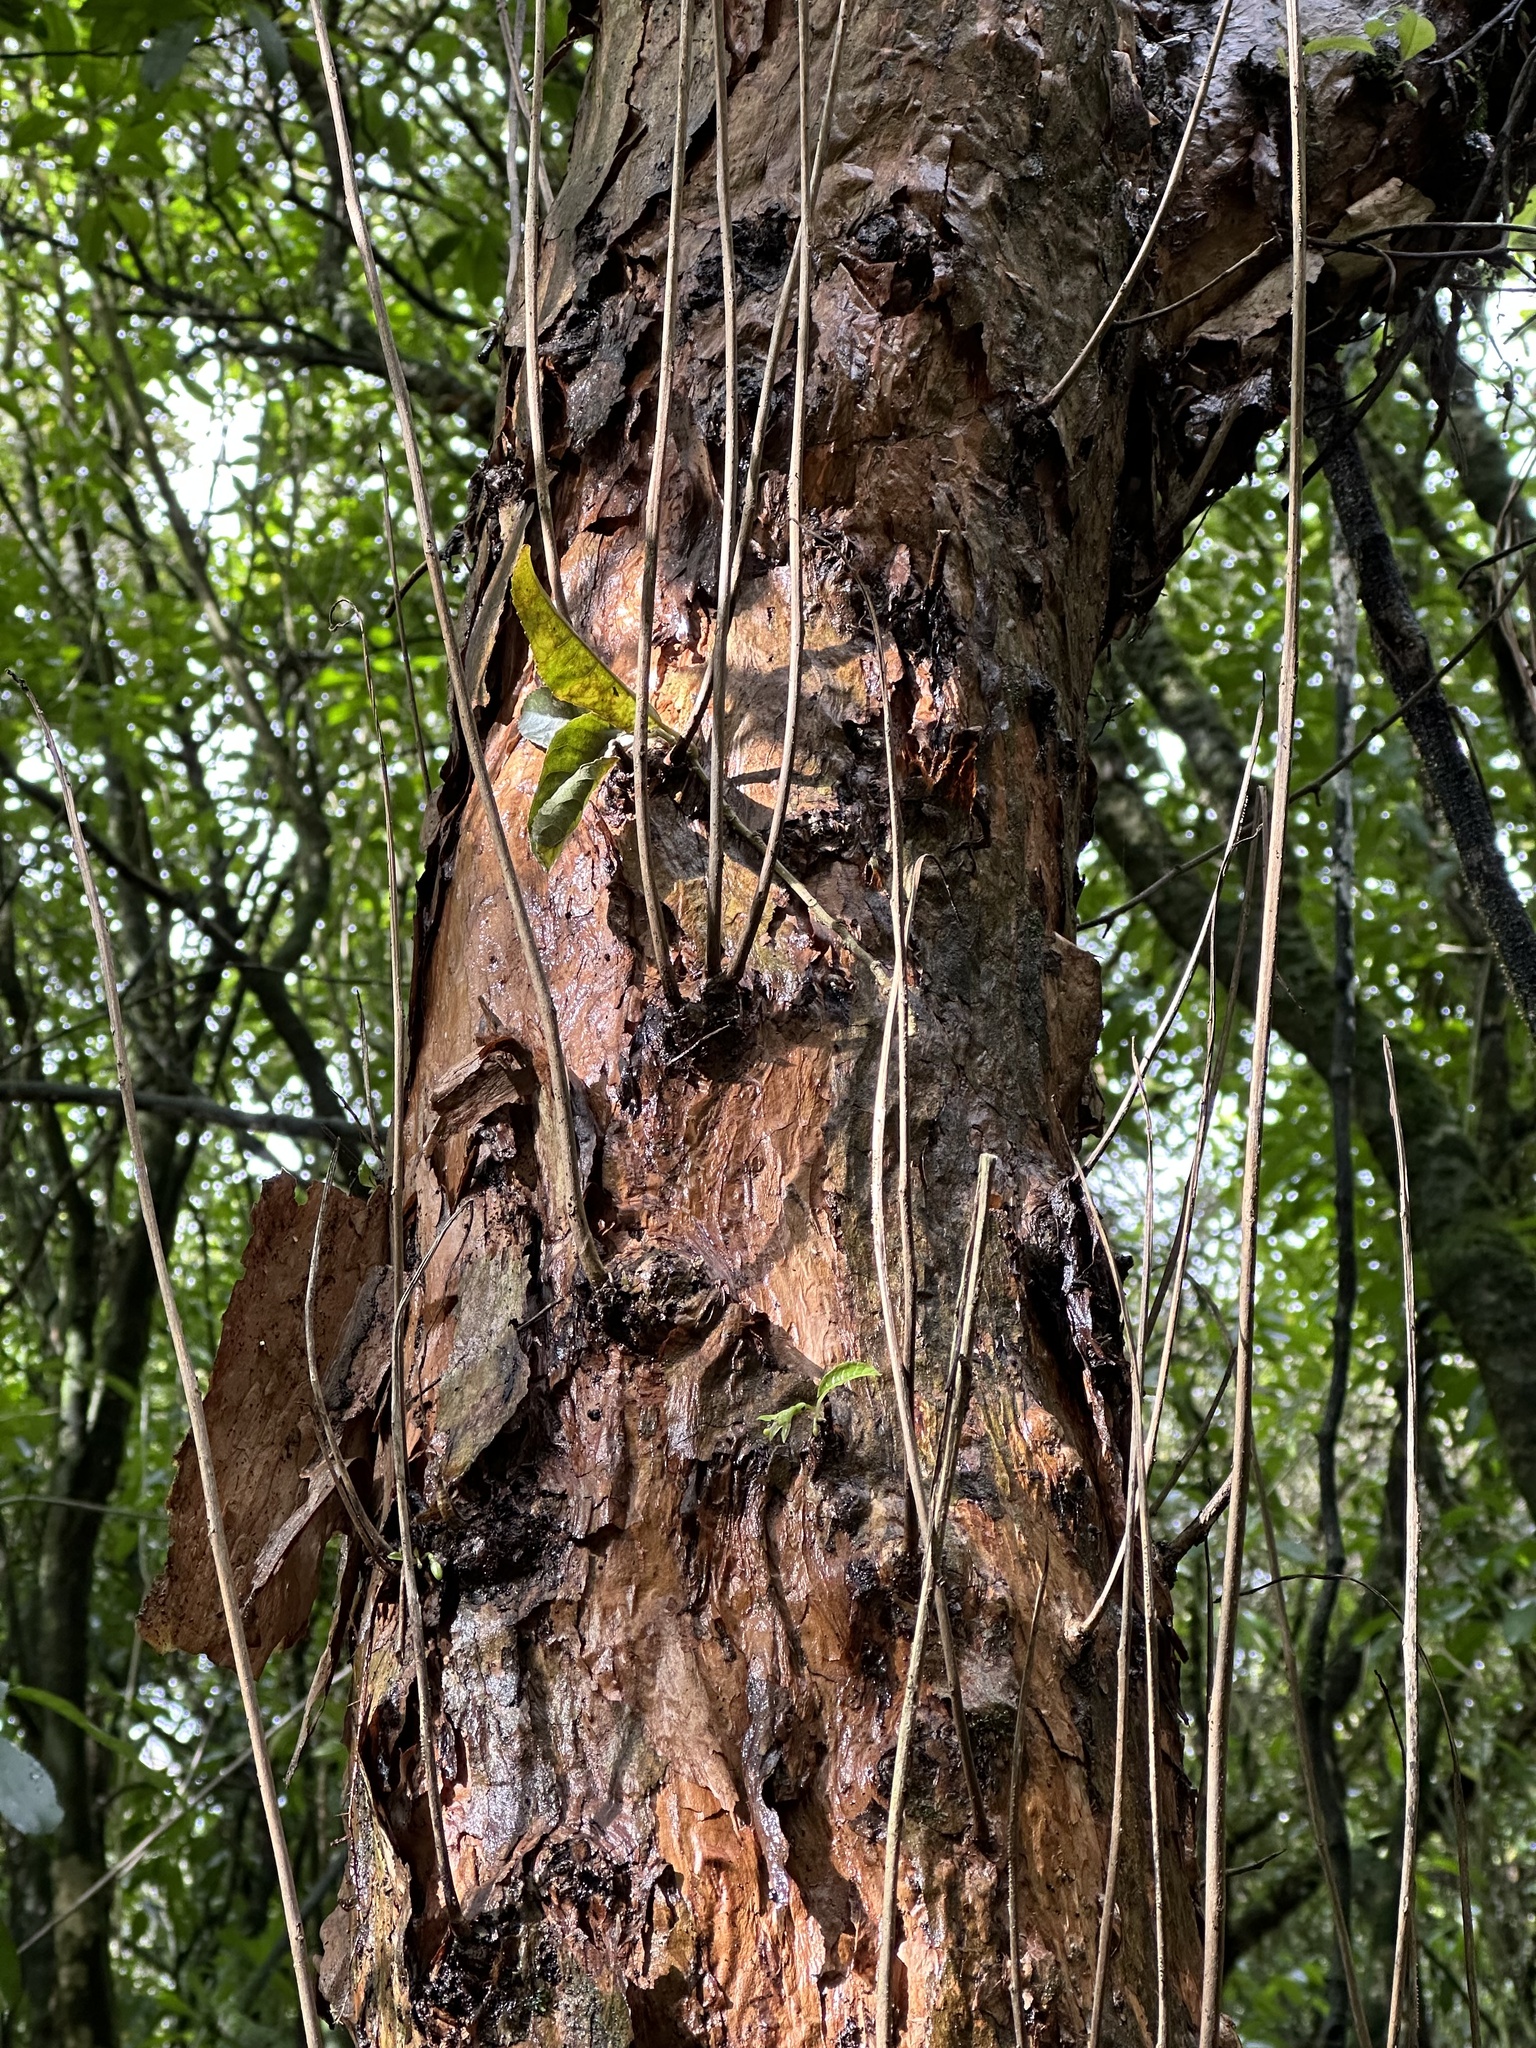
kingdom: Plantae
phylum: Tracheophyta
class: Magnoliopsida
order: Myrtales
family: Onagraceae
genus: Fuchsia
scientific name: Fuchsia excorticata
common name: Tree fuchsia
